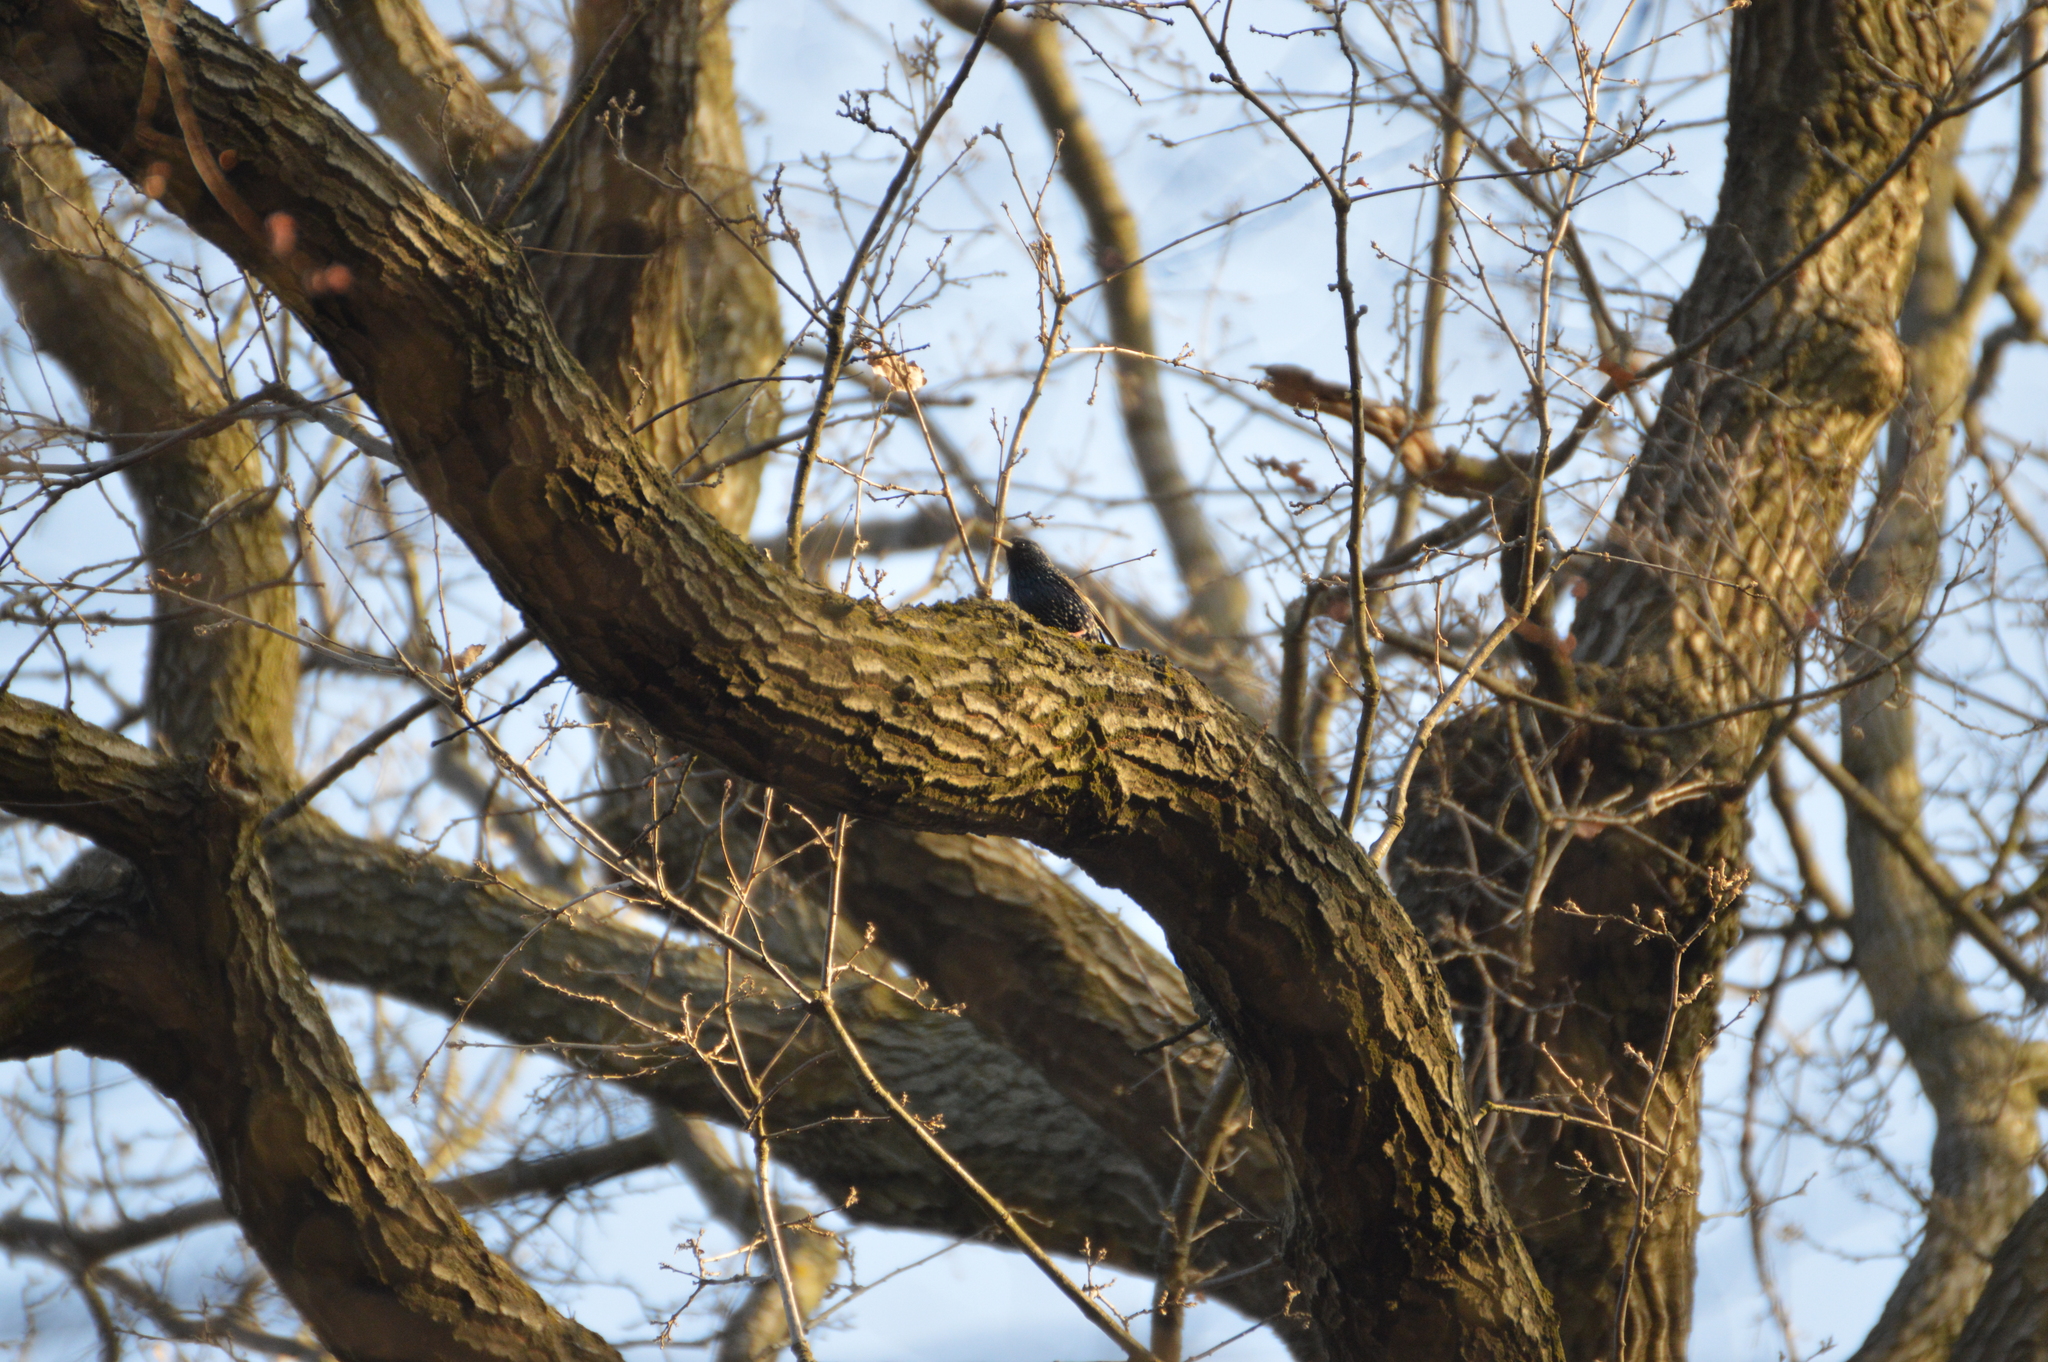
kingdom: Animalia
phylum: Chordata
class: Aves
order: Passeriformes
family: Sturnidae
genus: Sturnus
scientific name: Sturnus vulgaris
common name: Common starling
